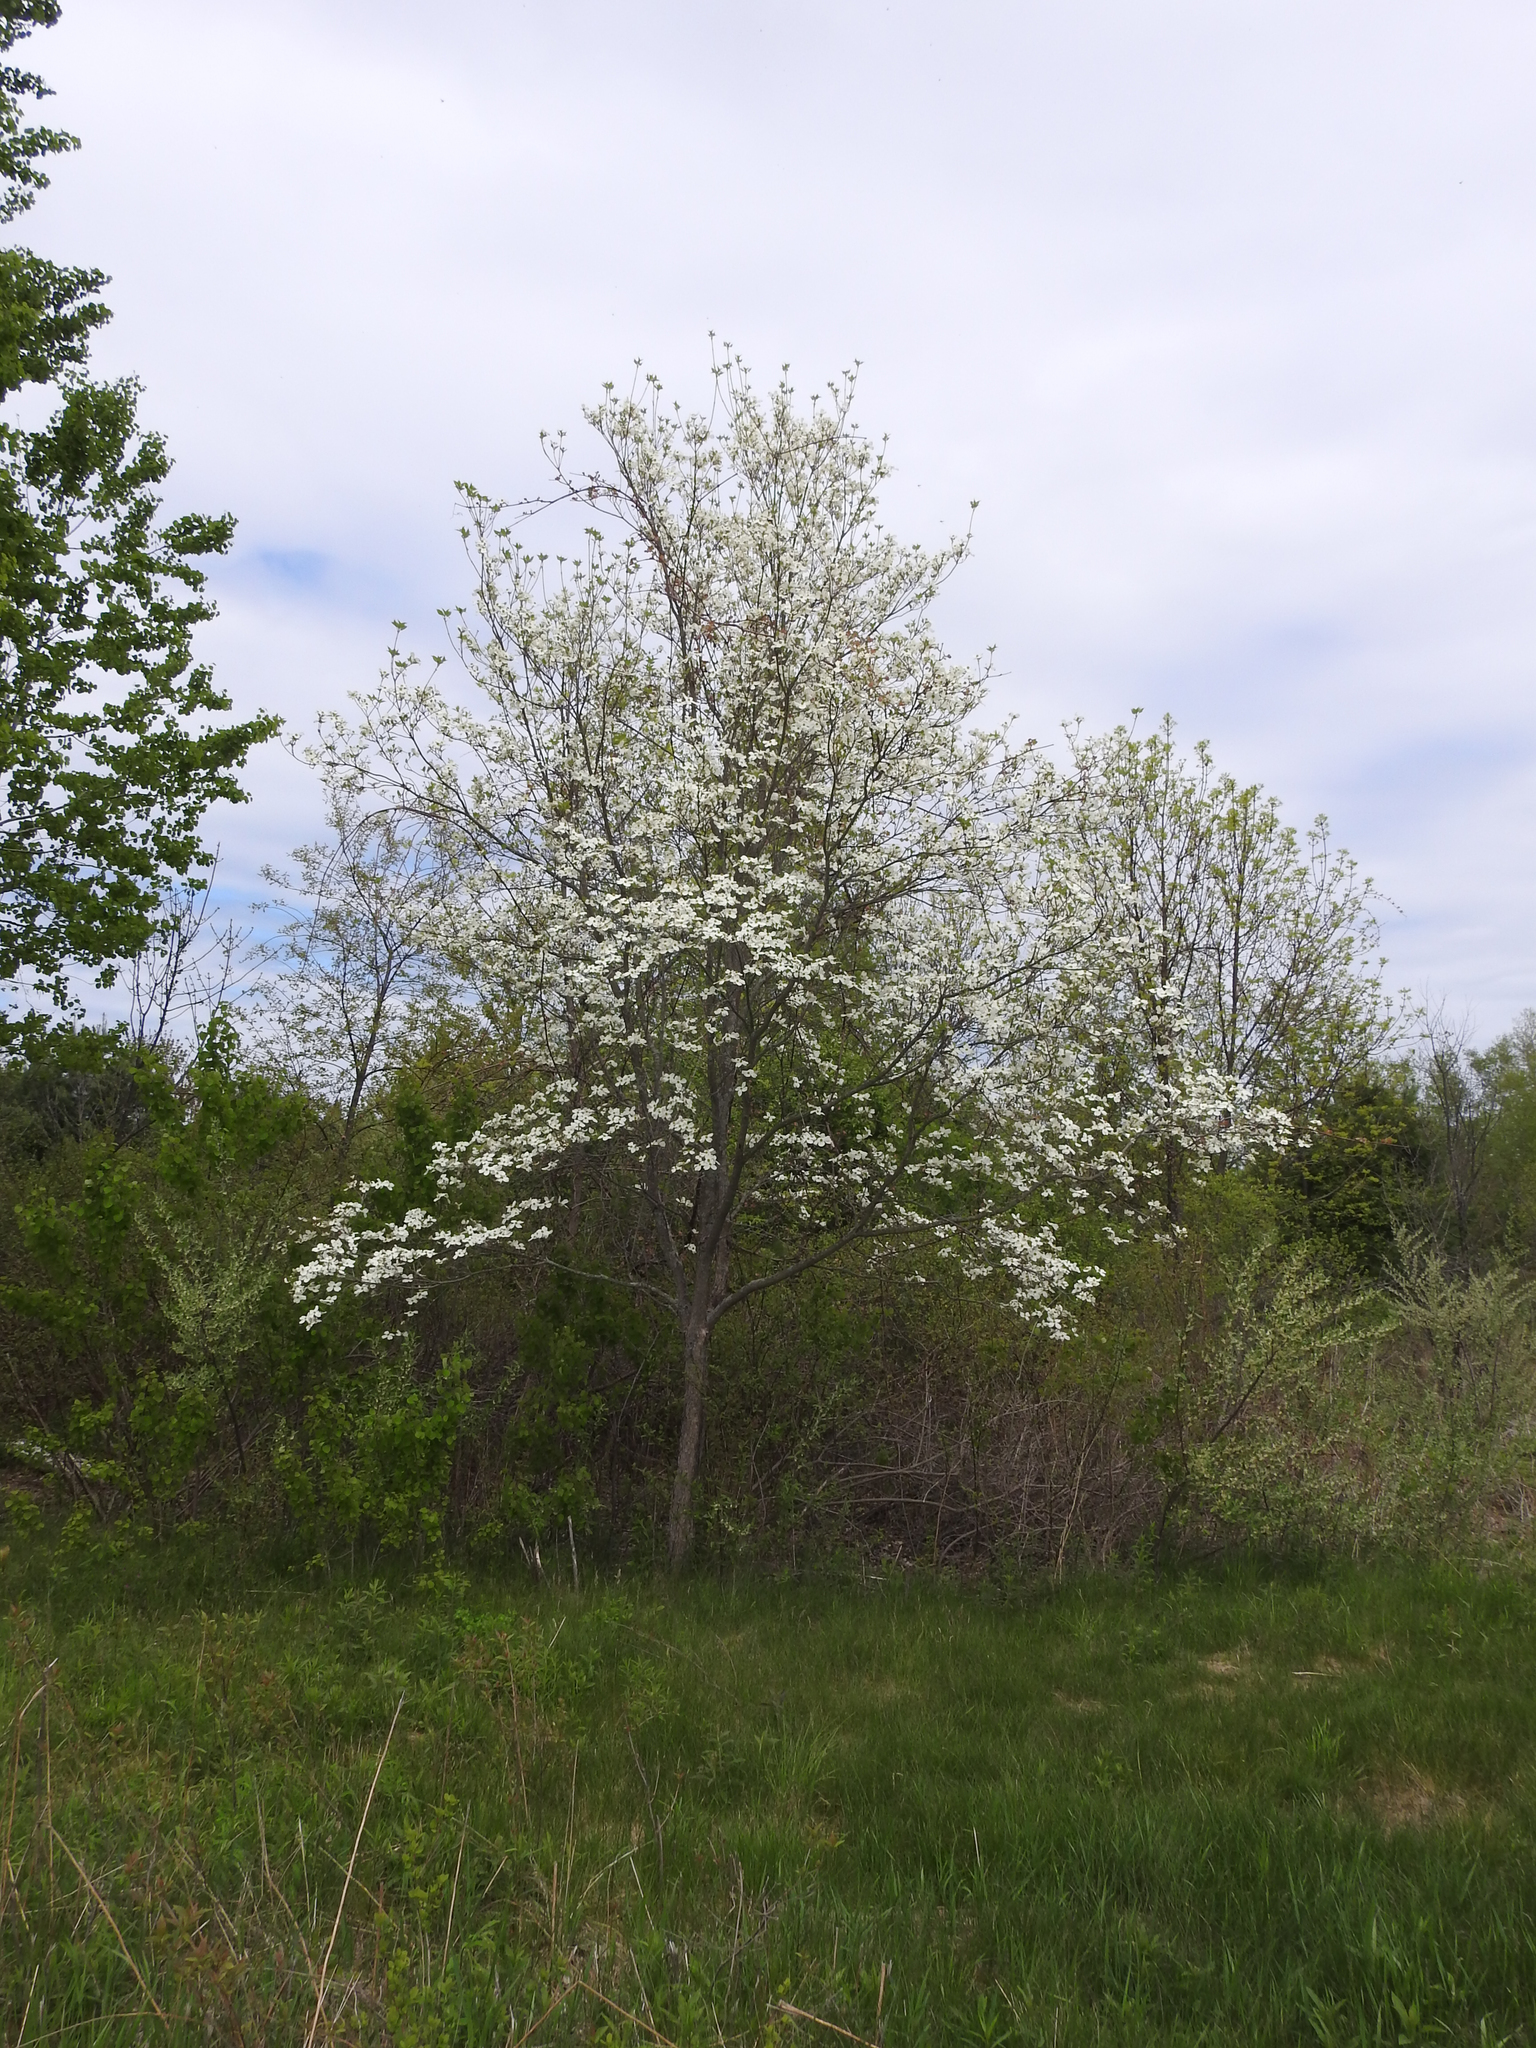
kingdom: Plantae
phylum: Tracheophyta
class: Magnoliopsida
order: Cornales
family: Cornaceae
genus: Cornus
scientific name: Cornus florida
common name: Flowering dogwood
